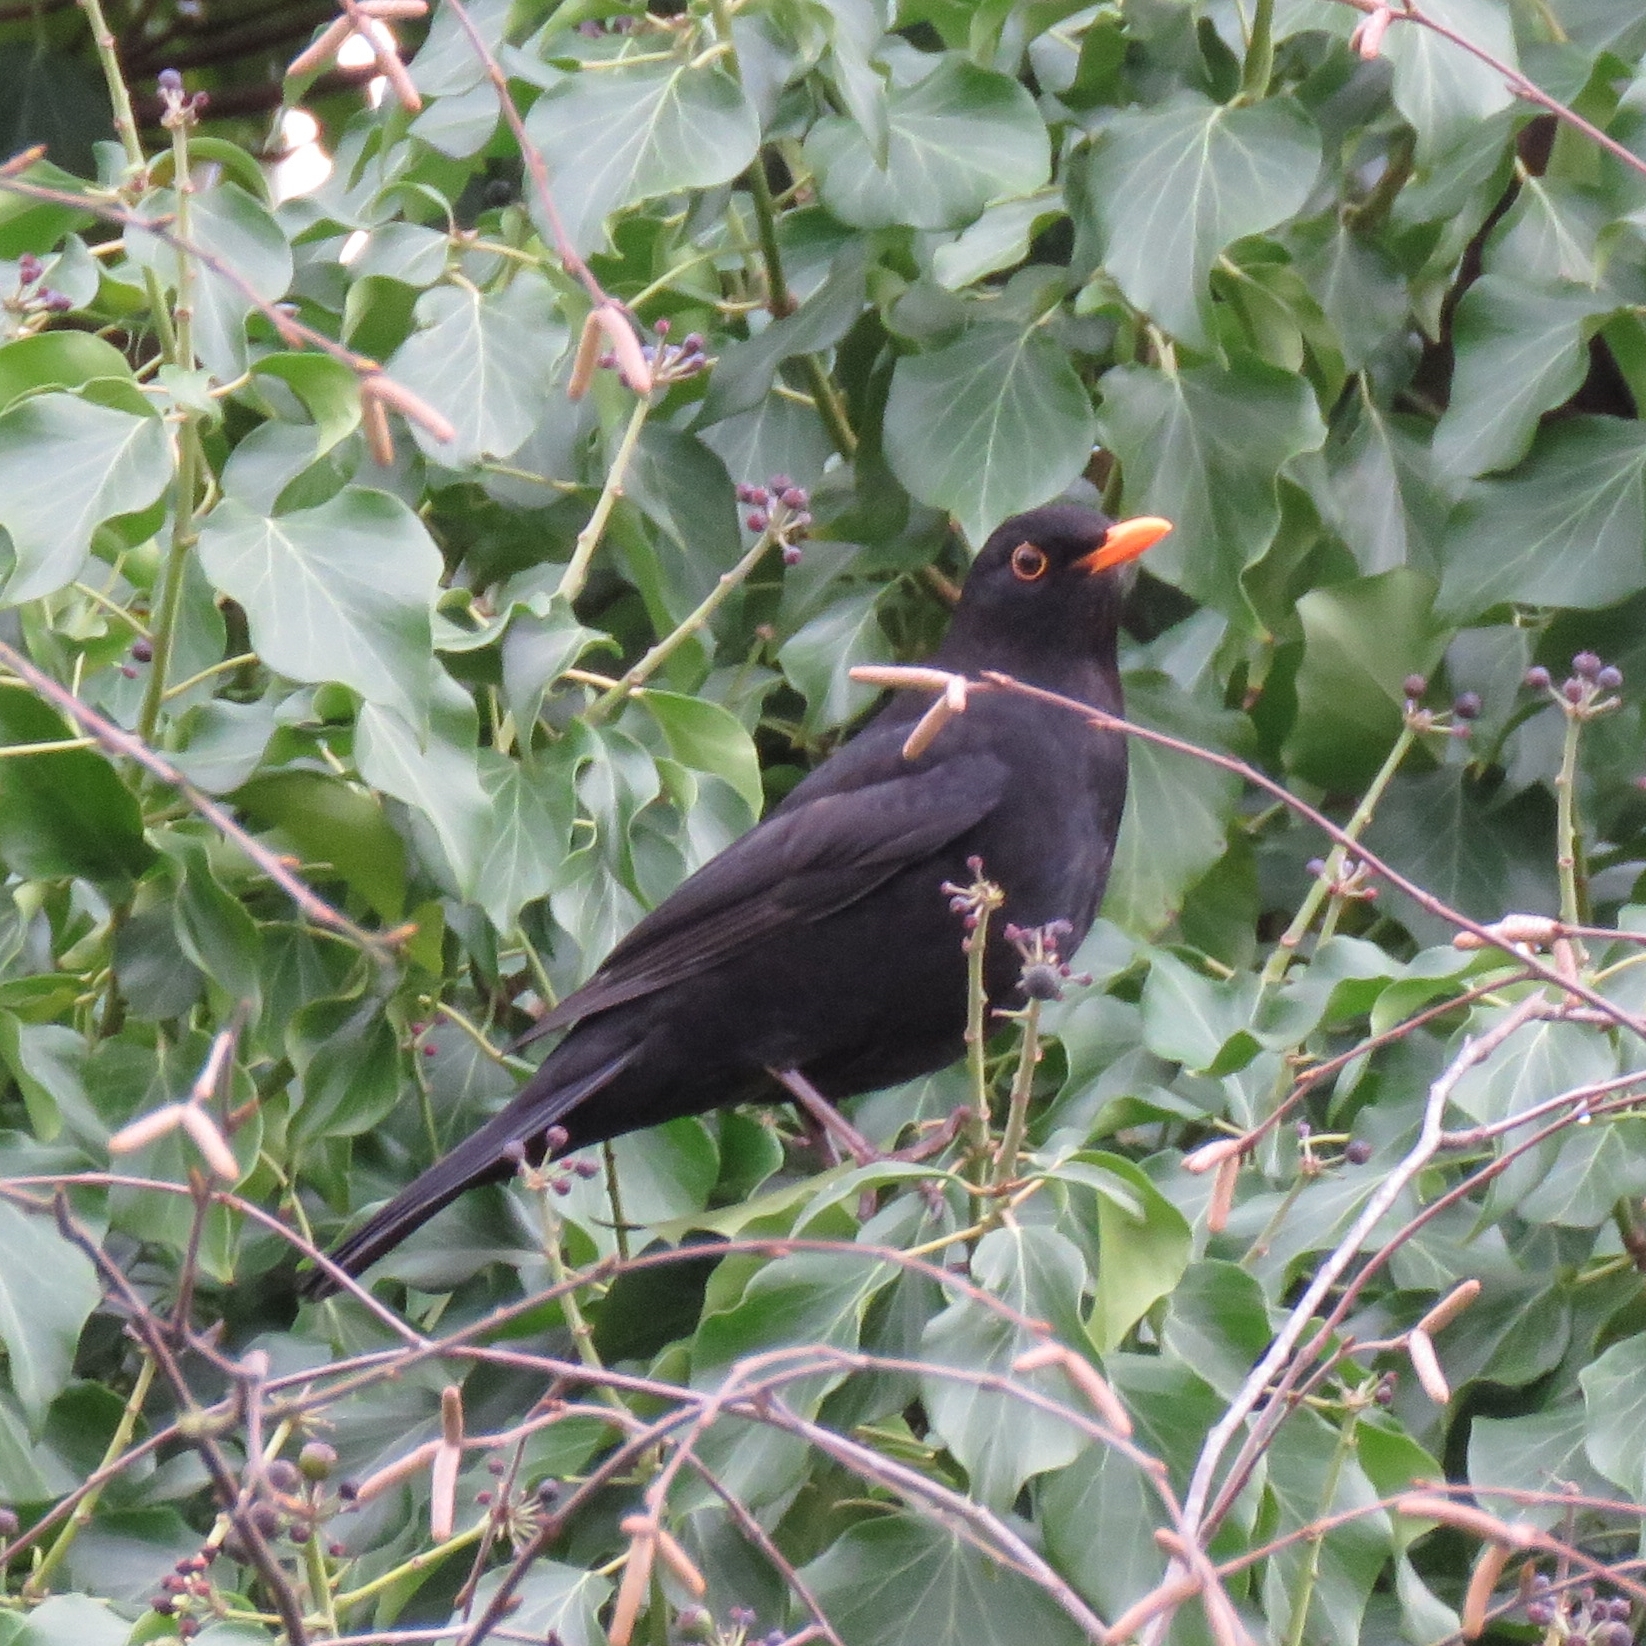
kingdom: Animalia
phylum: Chordata
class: Aves
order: Passeriformes
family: Turdidae
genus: Turdus
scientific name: Turdus merula
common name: Common blackbird
